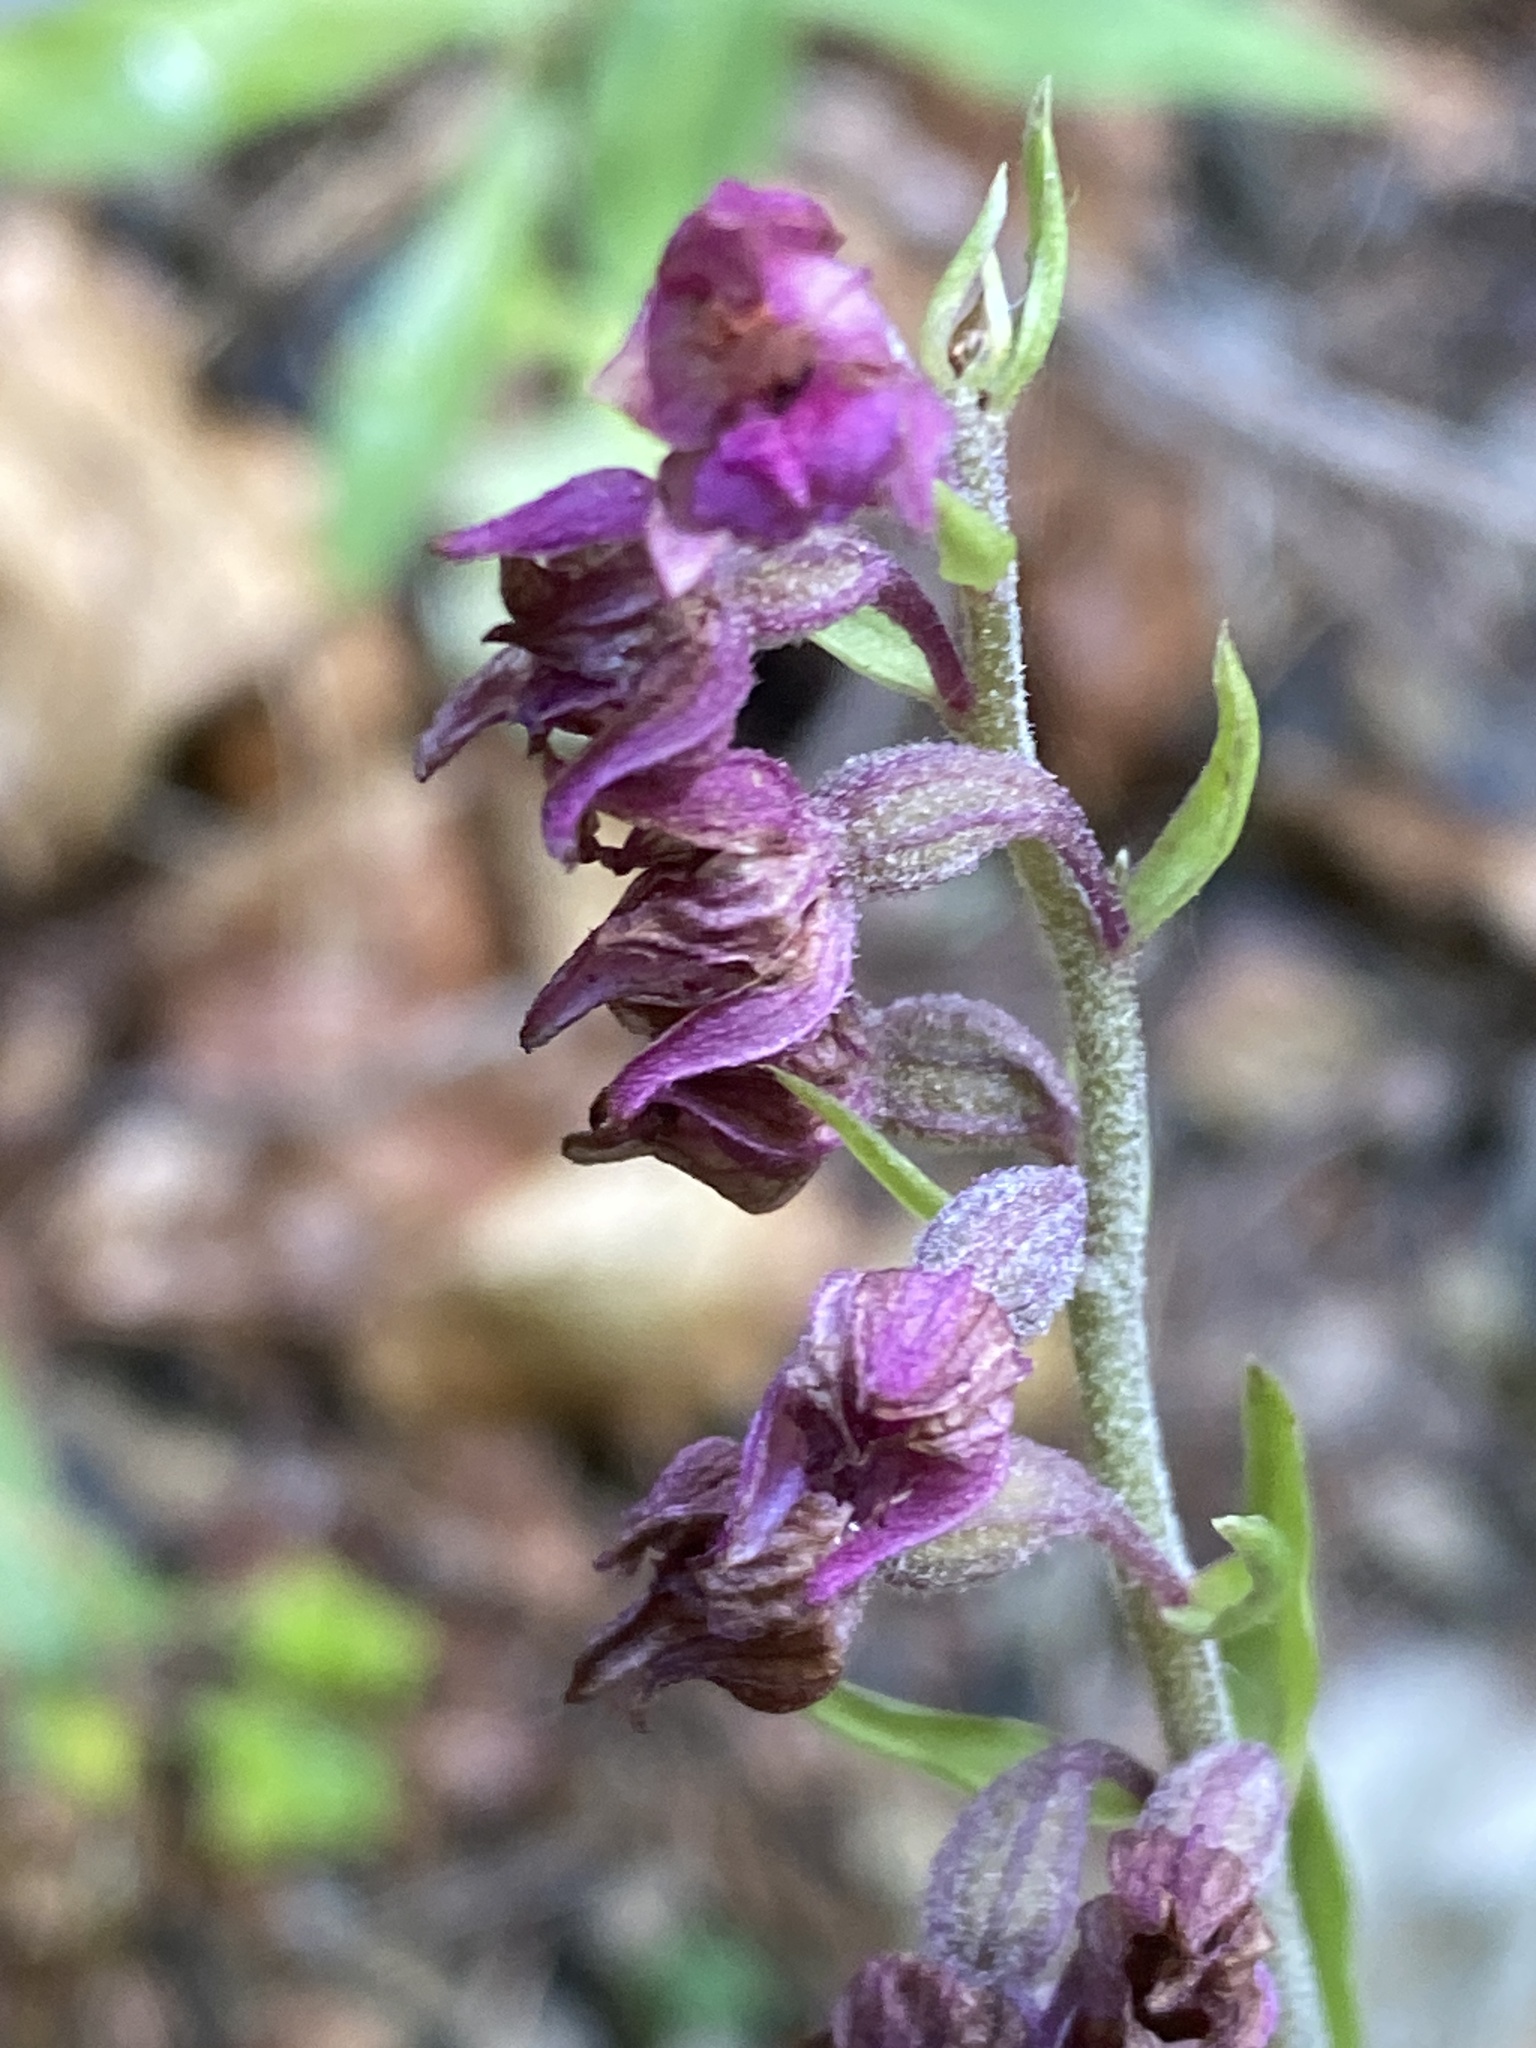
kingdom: Plantae
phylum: Tracheophyta
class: Liliopsida
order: Asparagales
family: Orchidaceae
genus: Epipactis
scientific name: Epipactis atrorubens
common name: Dark-red helleborine
